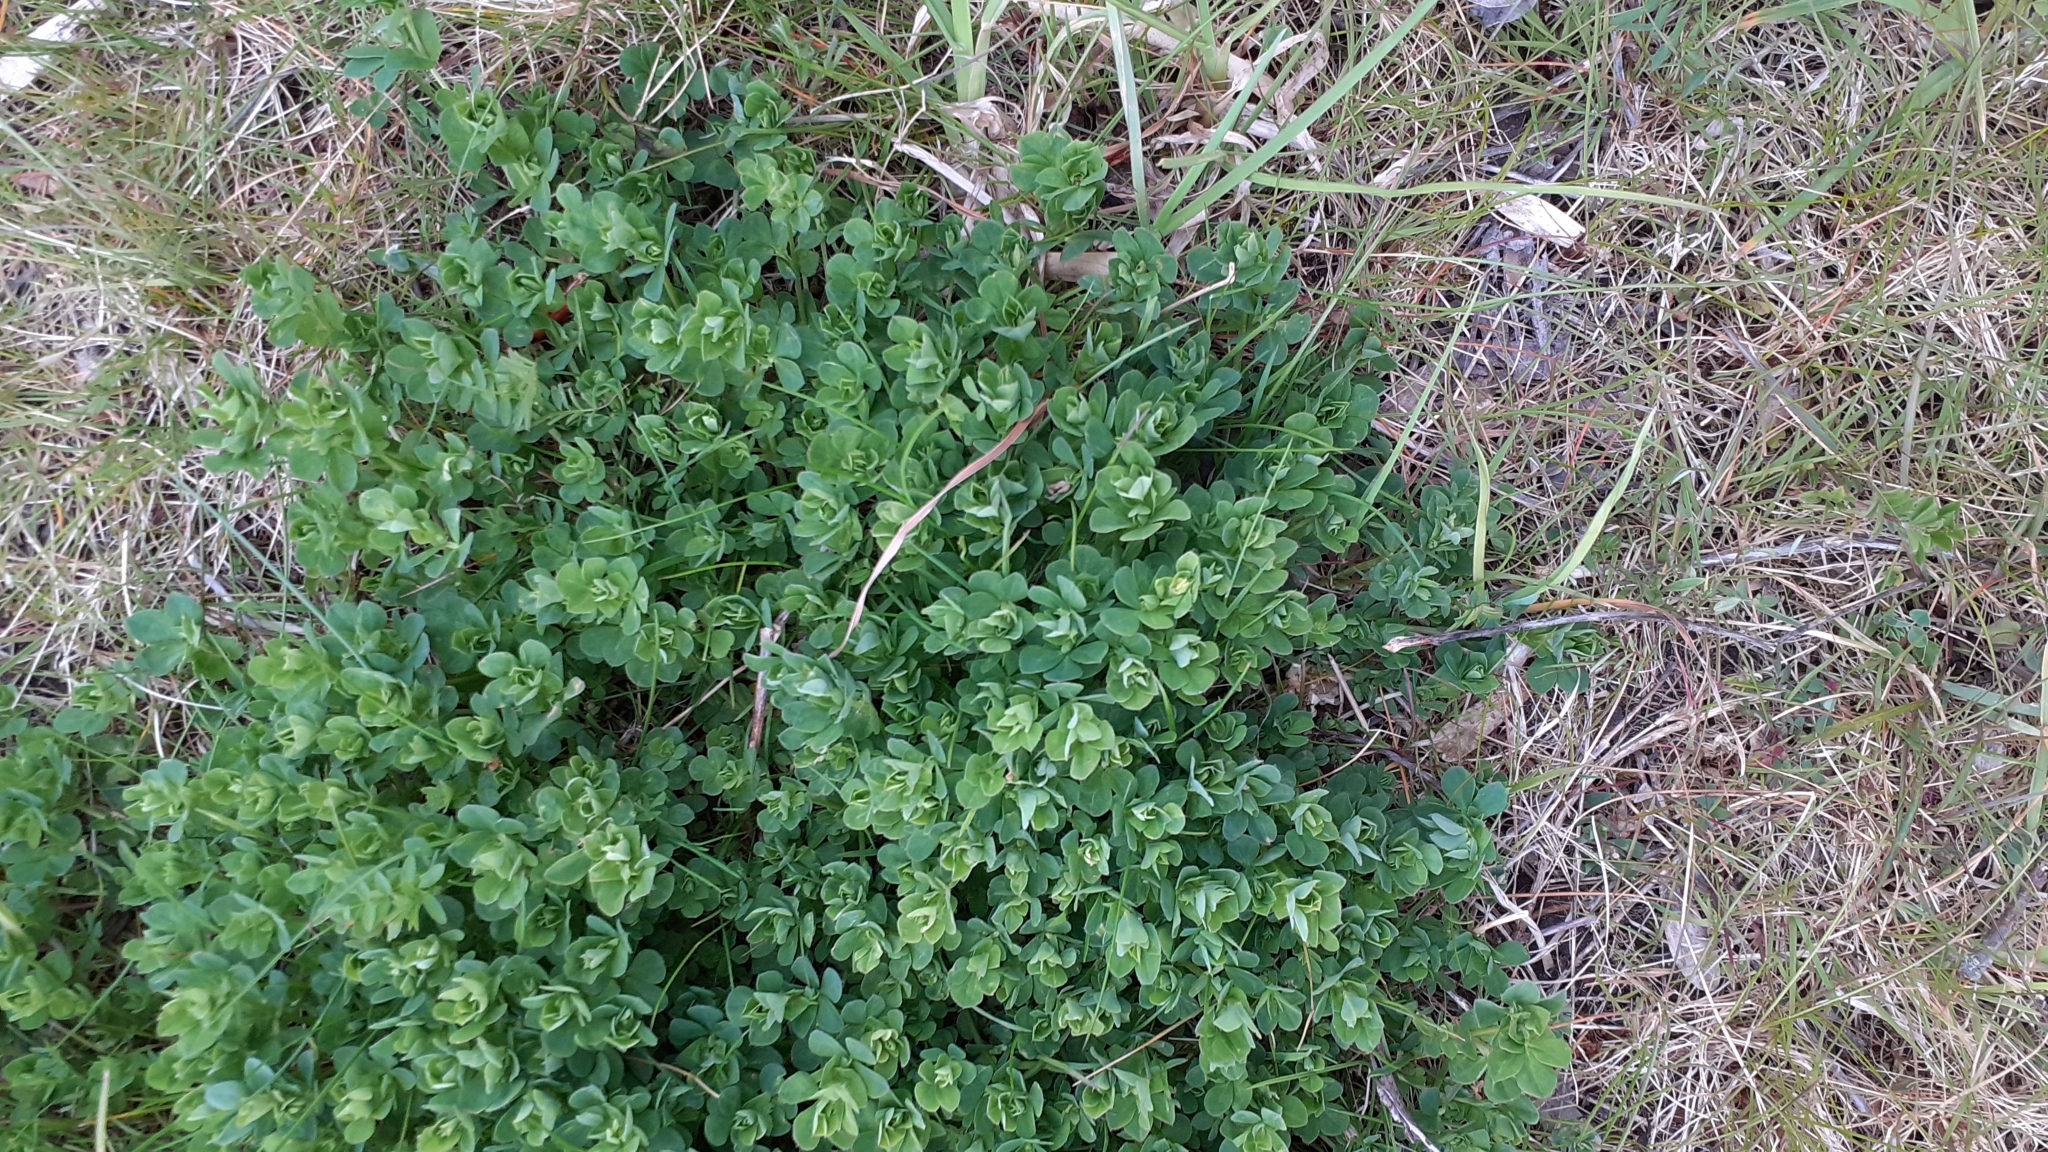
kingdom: Plantae
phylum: Tracheophyta
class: Magnoliopsida
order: Fabales
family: Fabaceae
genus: Lotus
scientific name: Lotus corniculatus
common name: Common bird's-foot-trefoil
